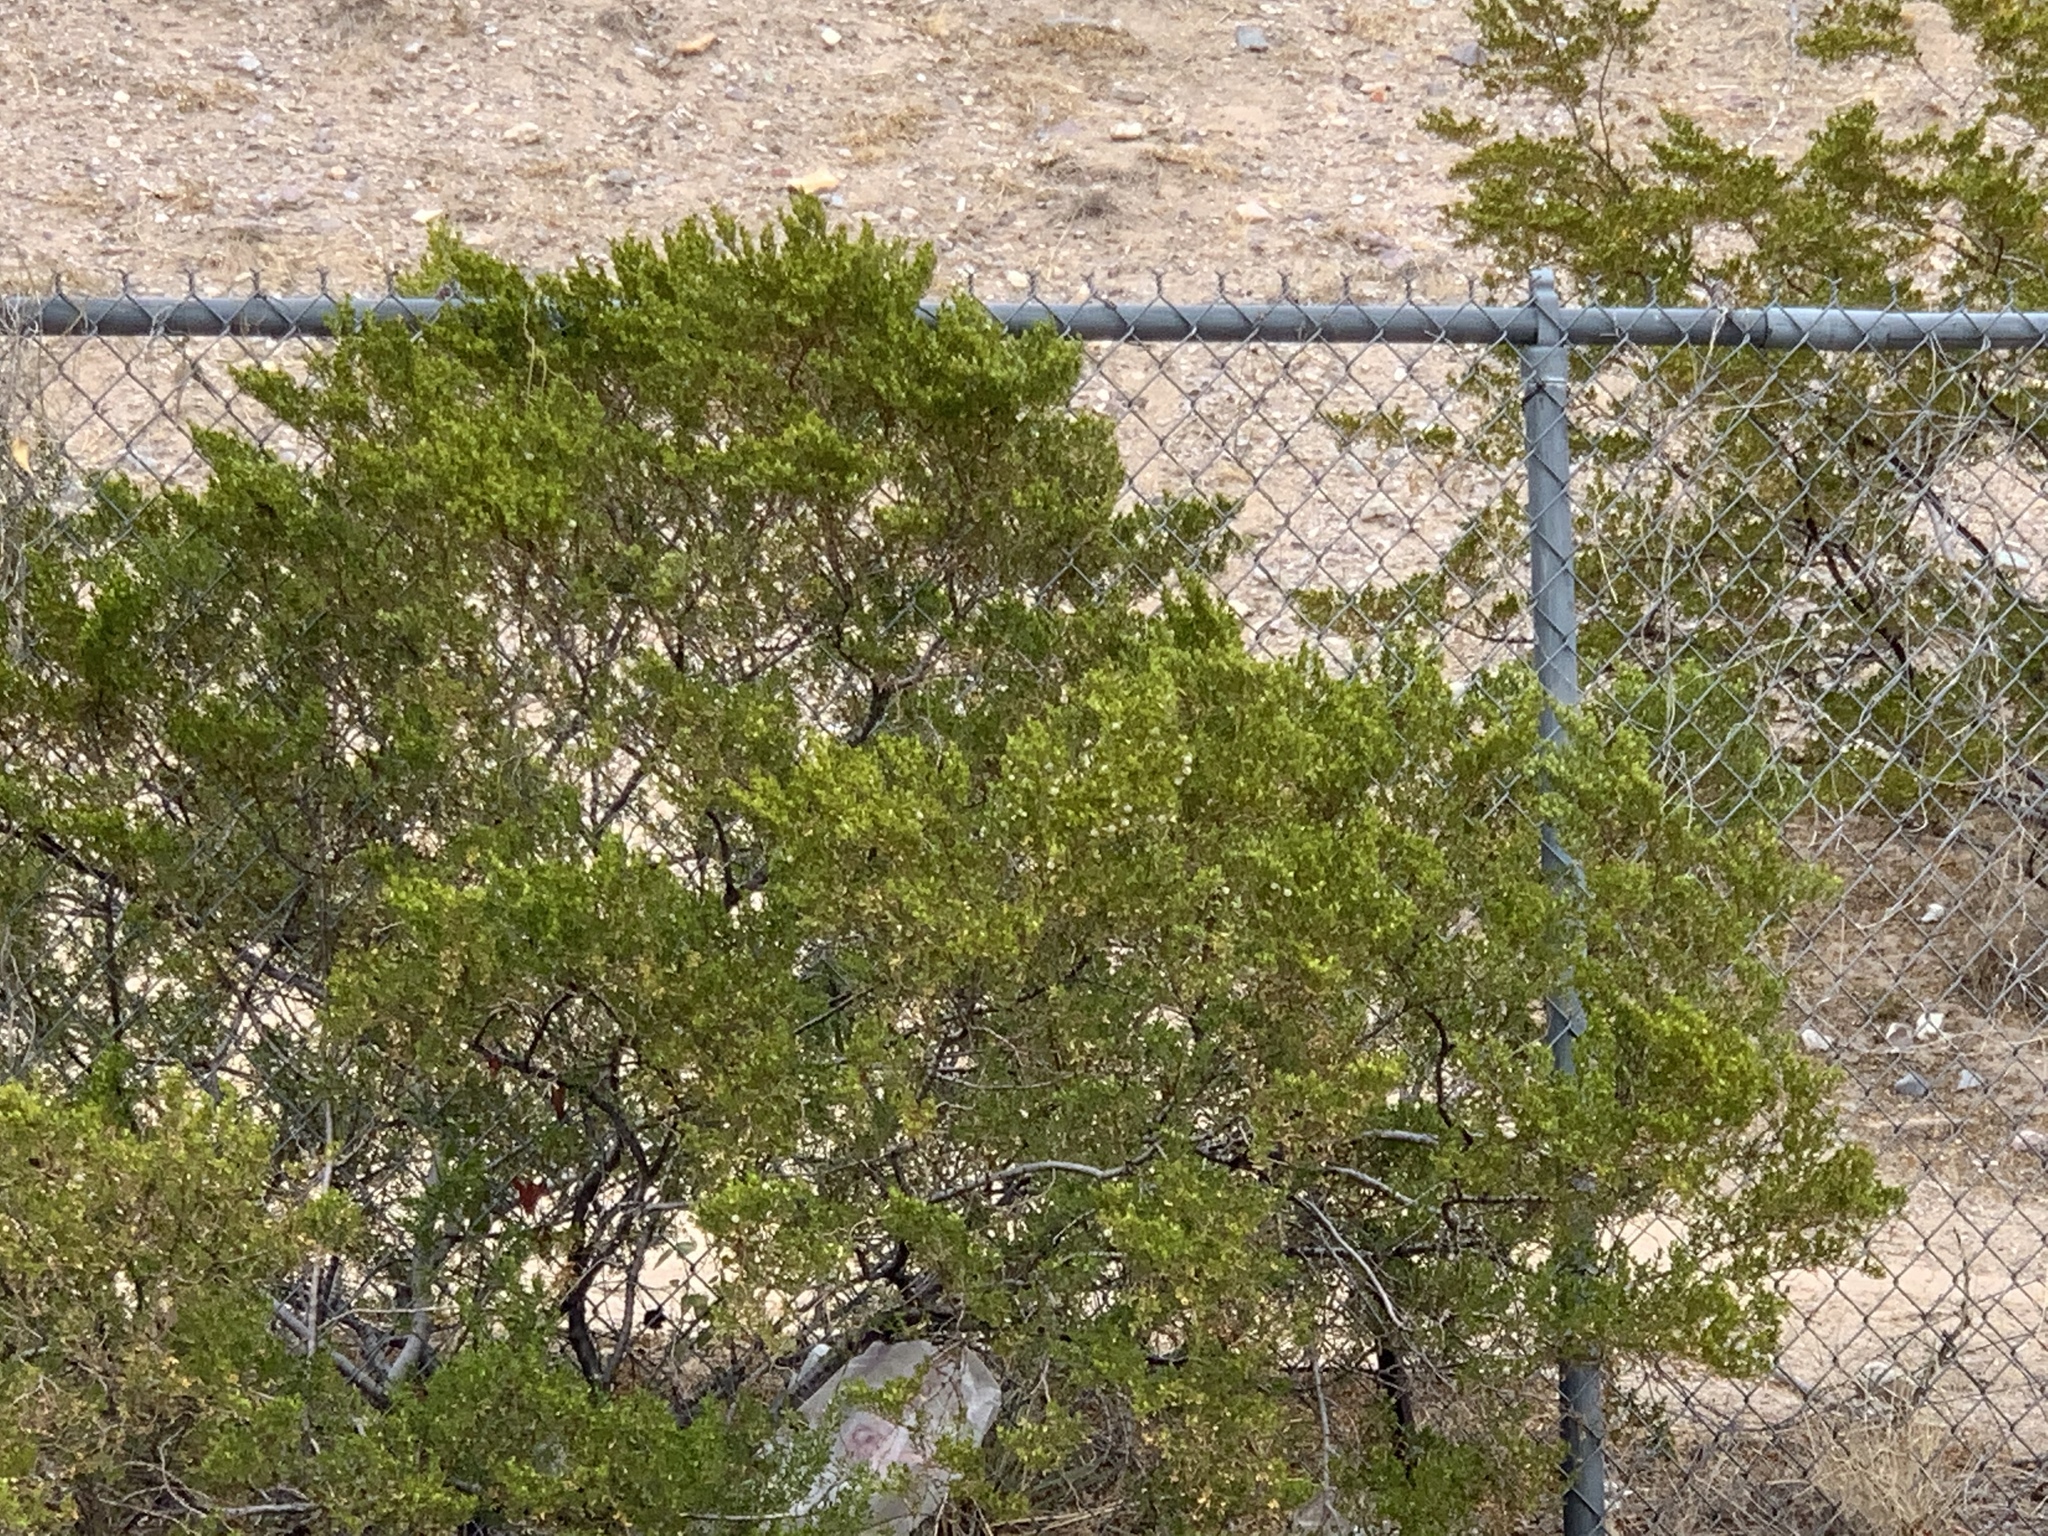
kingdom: Plantae
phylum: Tracheophyta
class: Magnoliopsida
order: Zygophyllales
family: Zygophyllaceae
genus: Larrea
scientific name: Larrea tridentata
